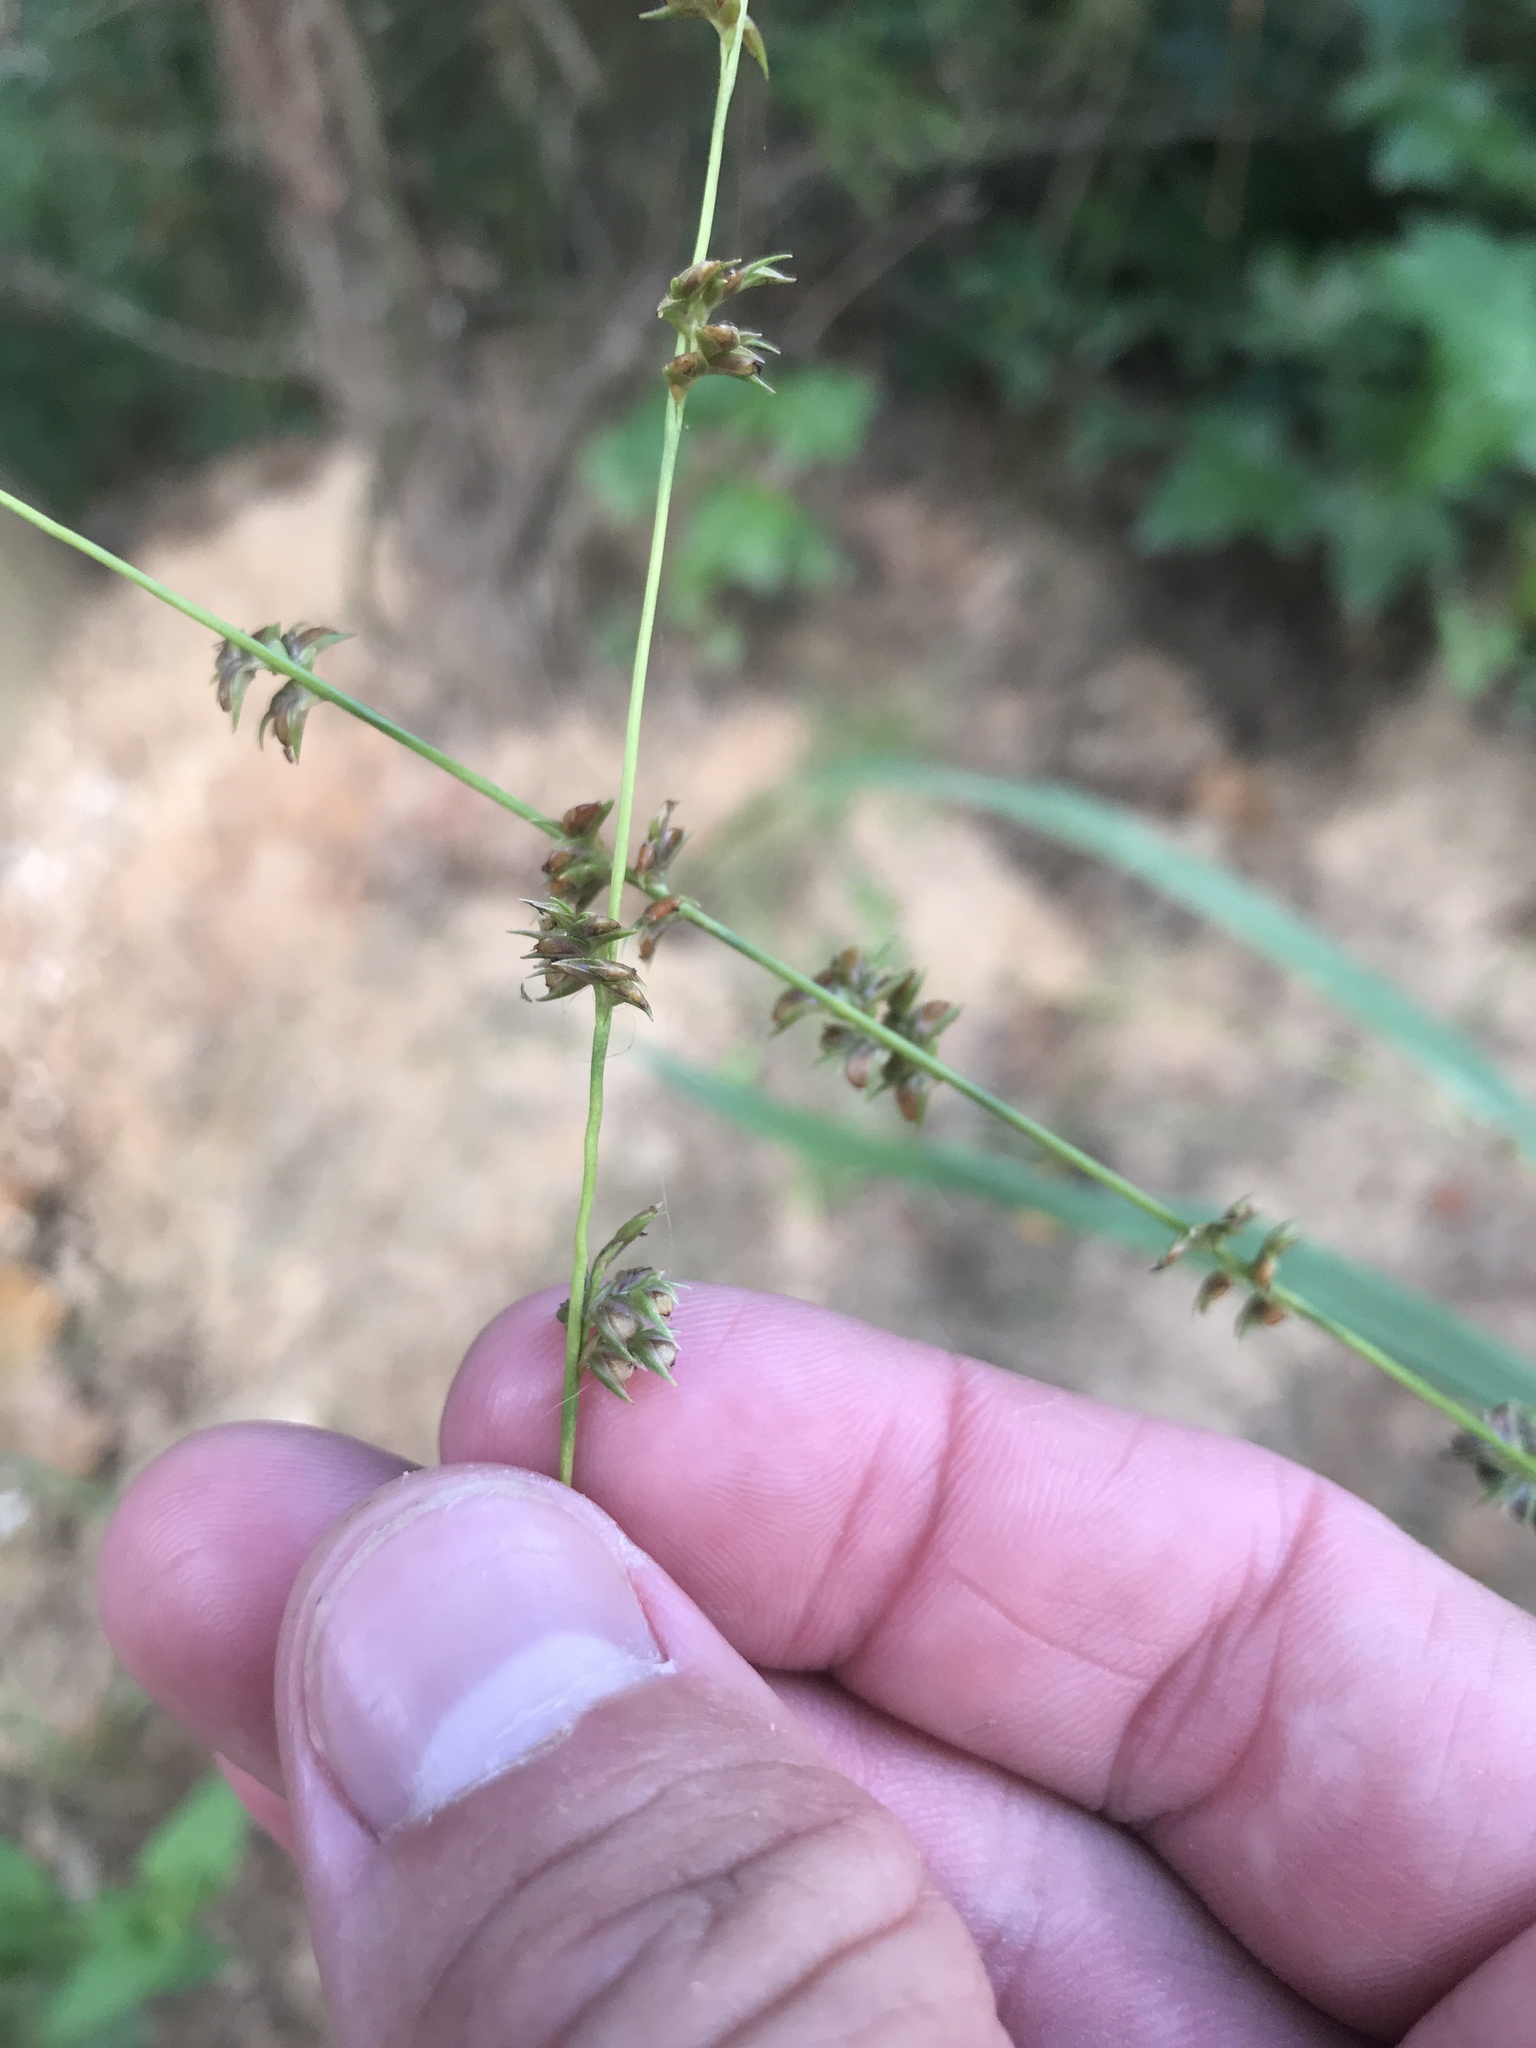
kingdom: Plantae
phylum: Tracheophyta
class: Liliopsida
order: Poales
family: Poaceae
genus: Chasmanthium
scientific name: Chasmanthium laxum
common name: Slender chasmanthium
